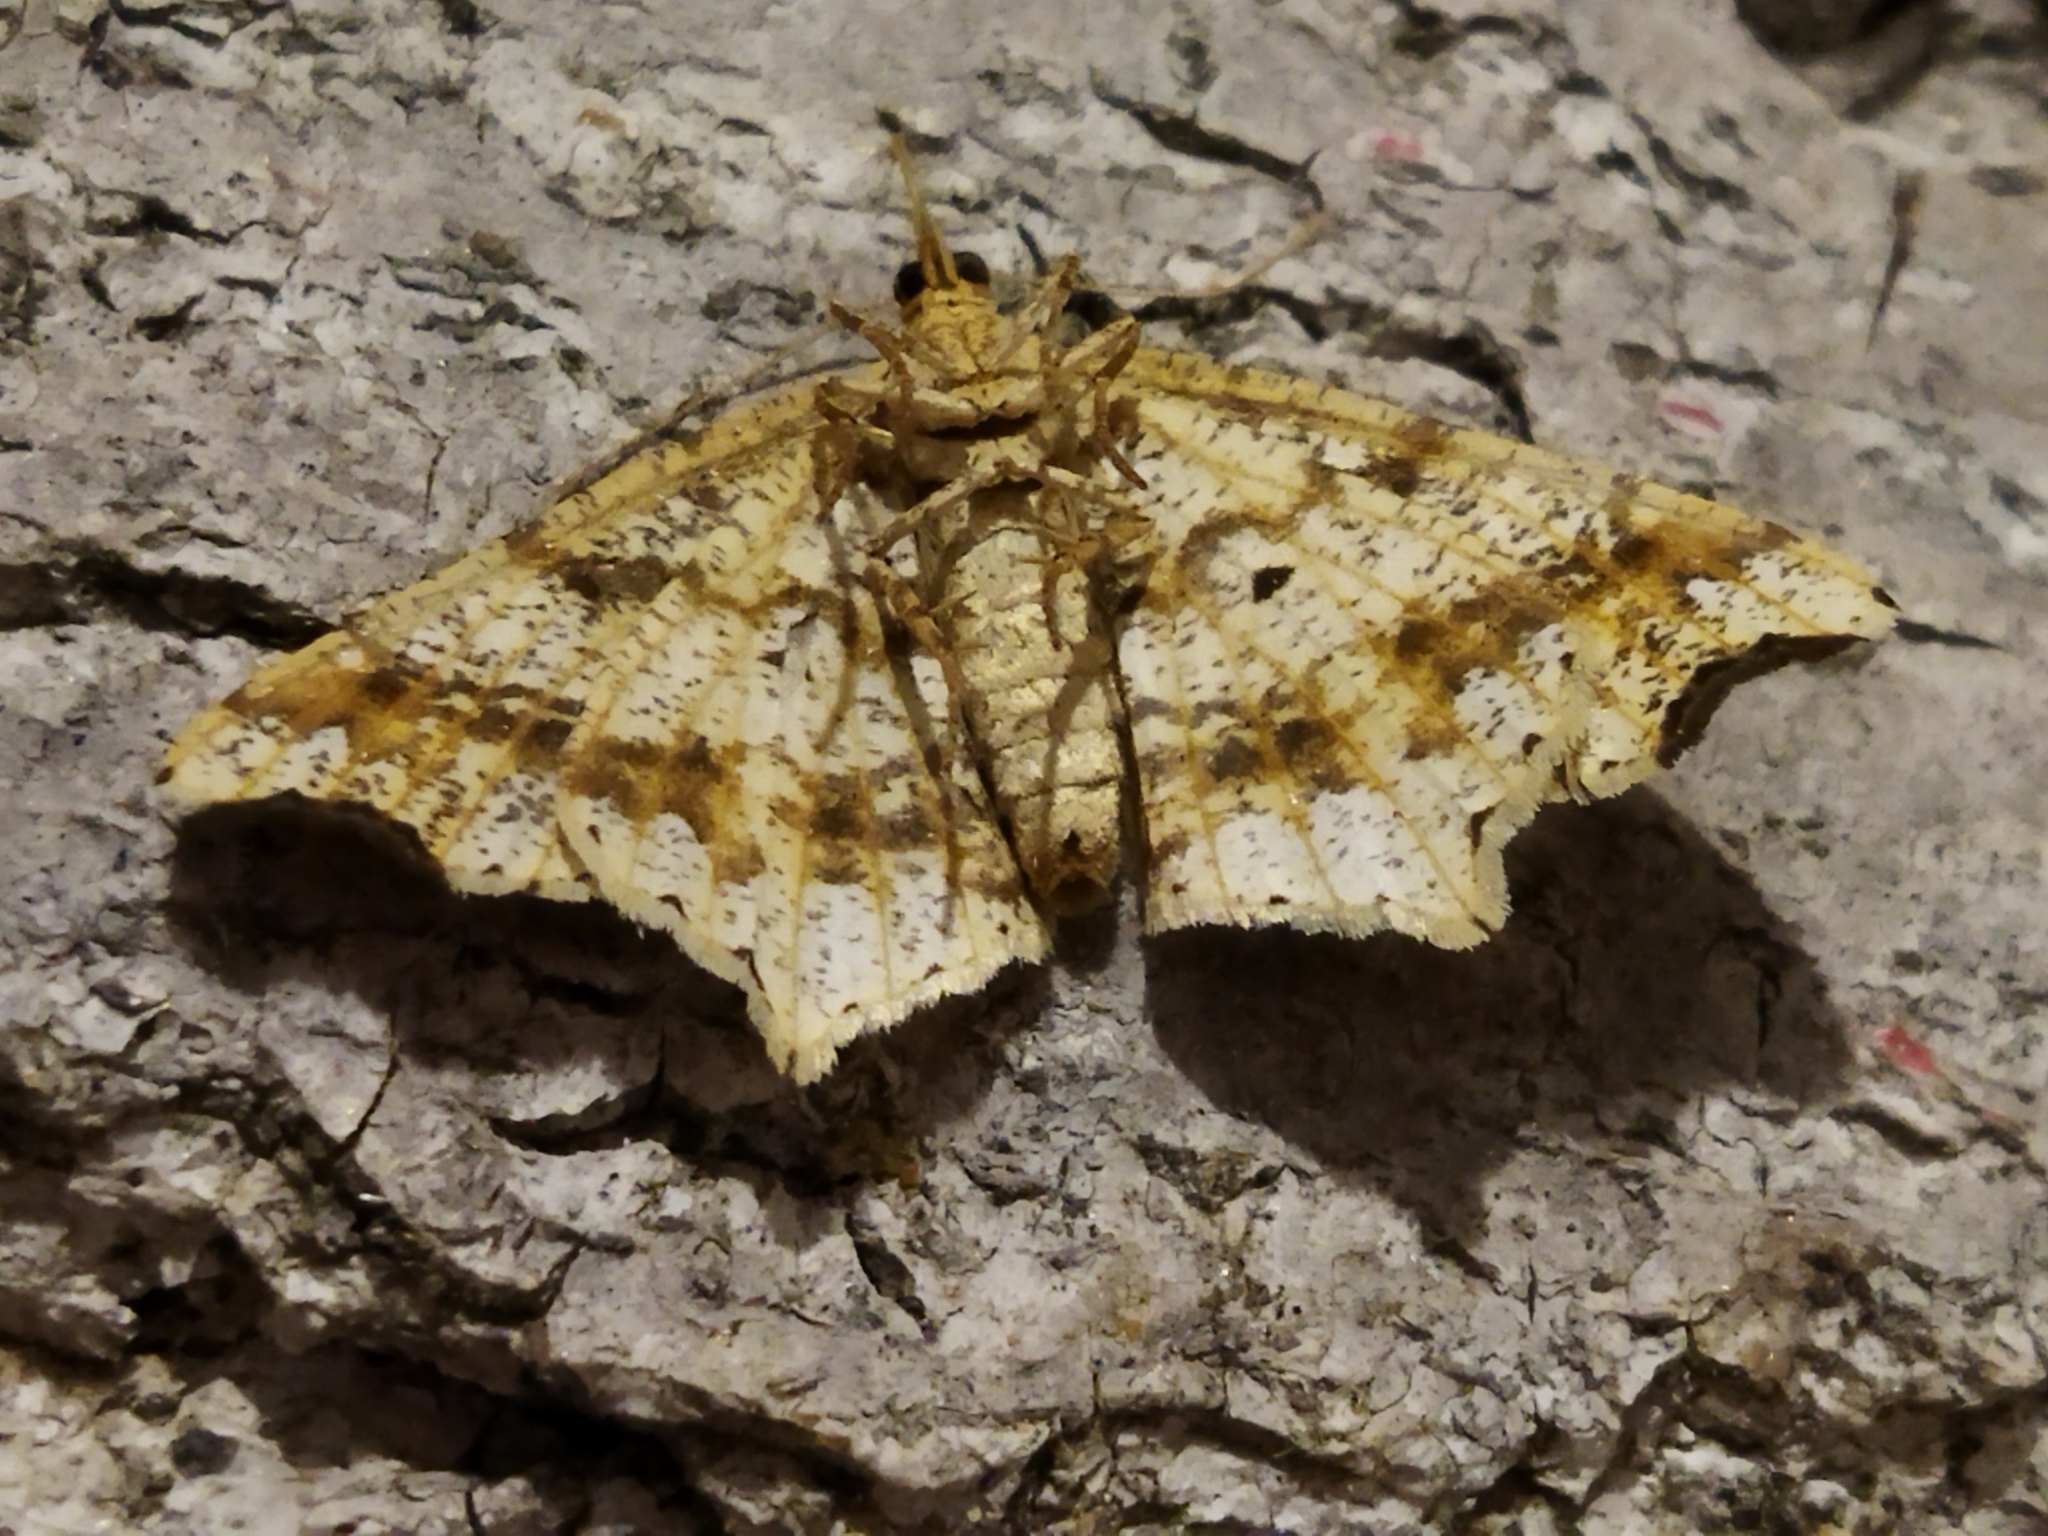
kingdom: Animalia
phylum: Arthropoda
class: Insecta
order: Lepidoptera
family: Geometridae
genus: Macaria
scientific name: Macaria alternata
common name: Sharp-angled peacock
